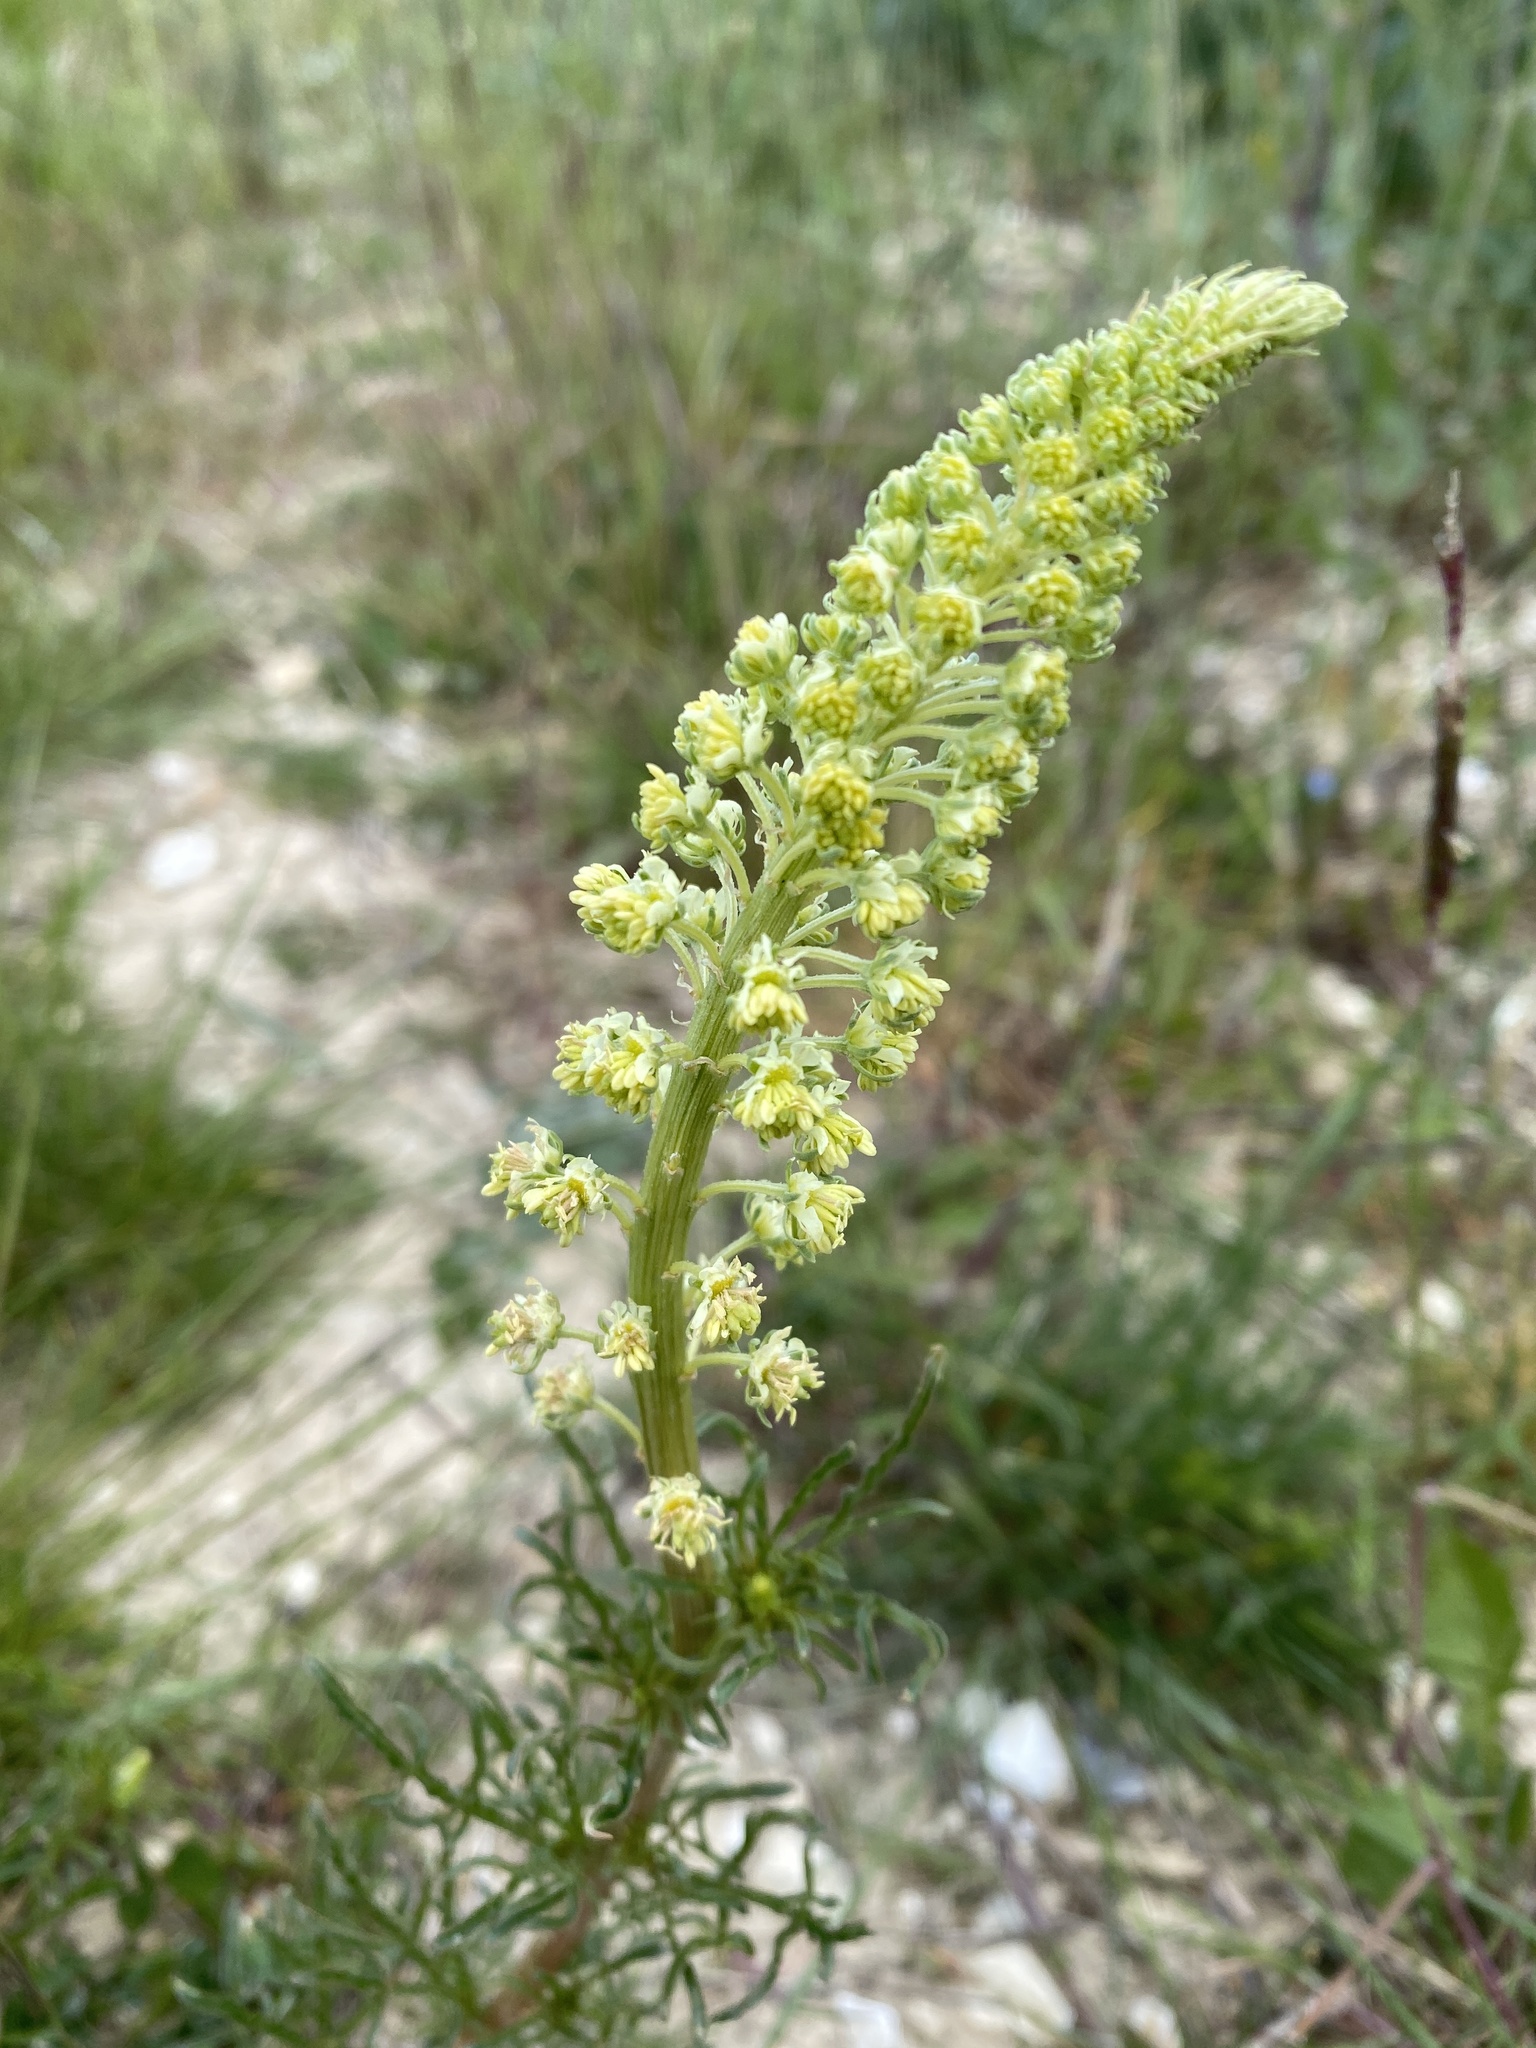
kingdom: Plantae
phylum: Tracheophyta
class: Magnoliopsida
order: Brassicales
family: Resedaceae
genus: Reseda
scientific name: Reseda lutea
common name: Wild mignonette
